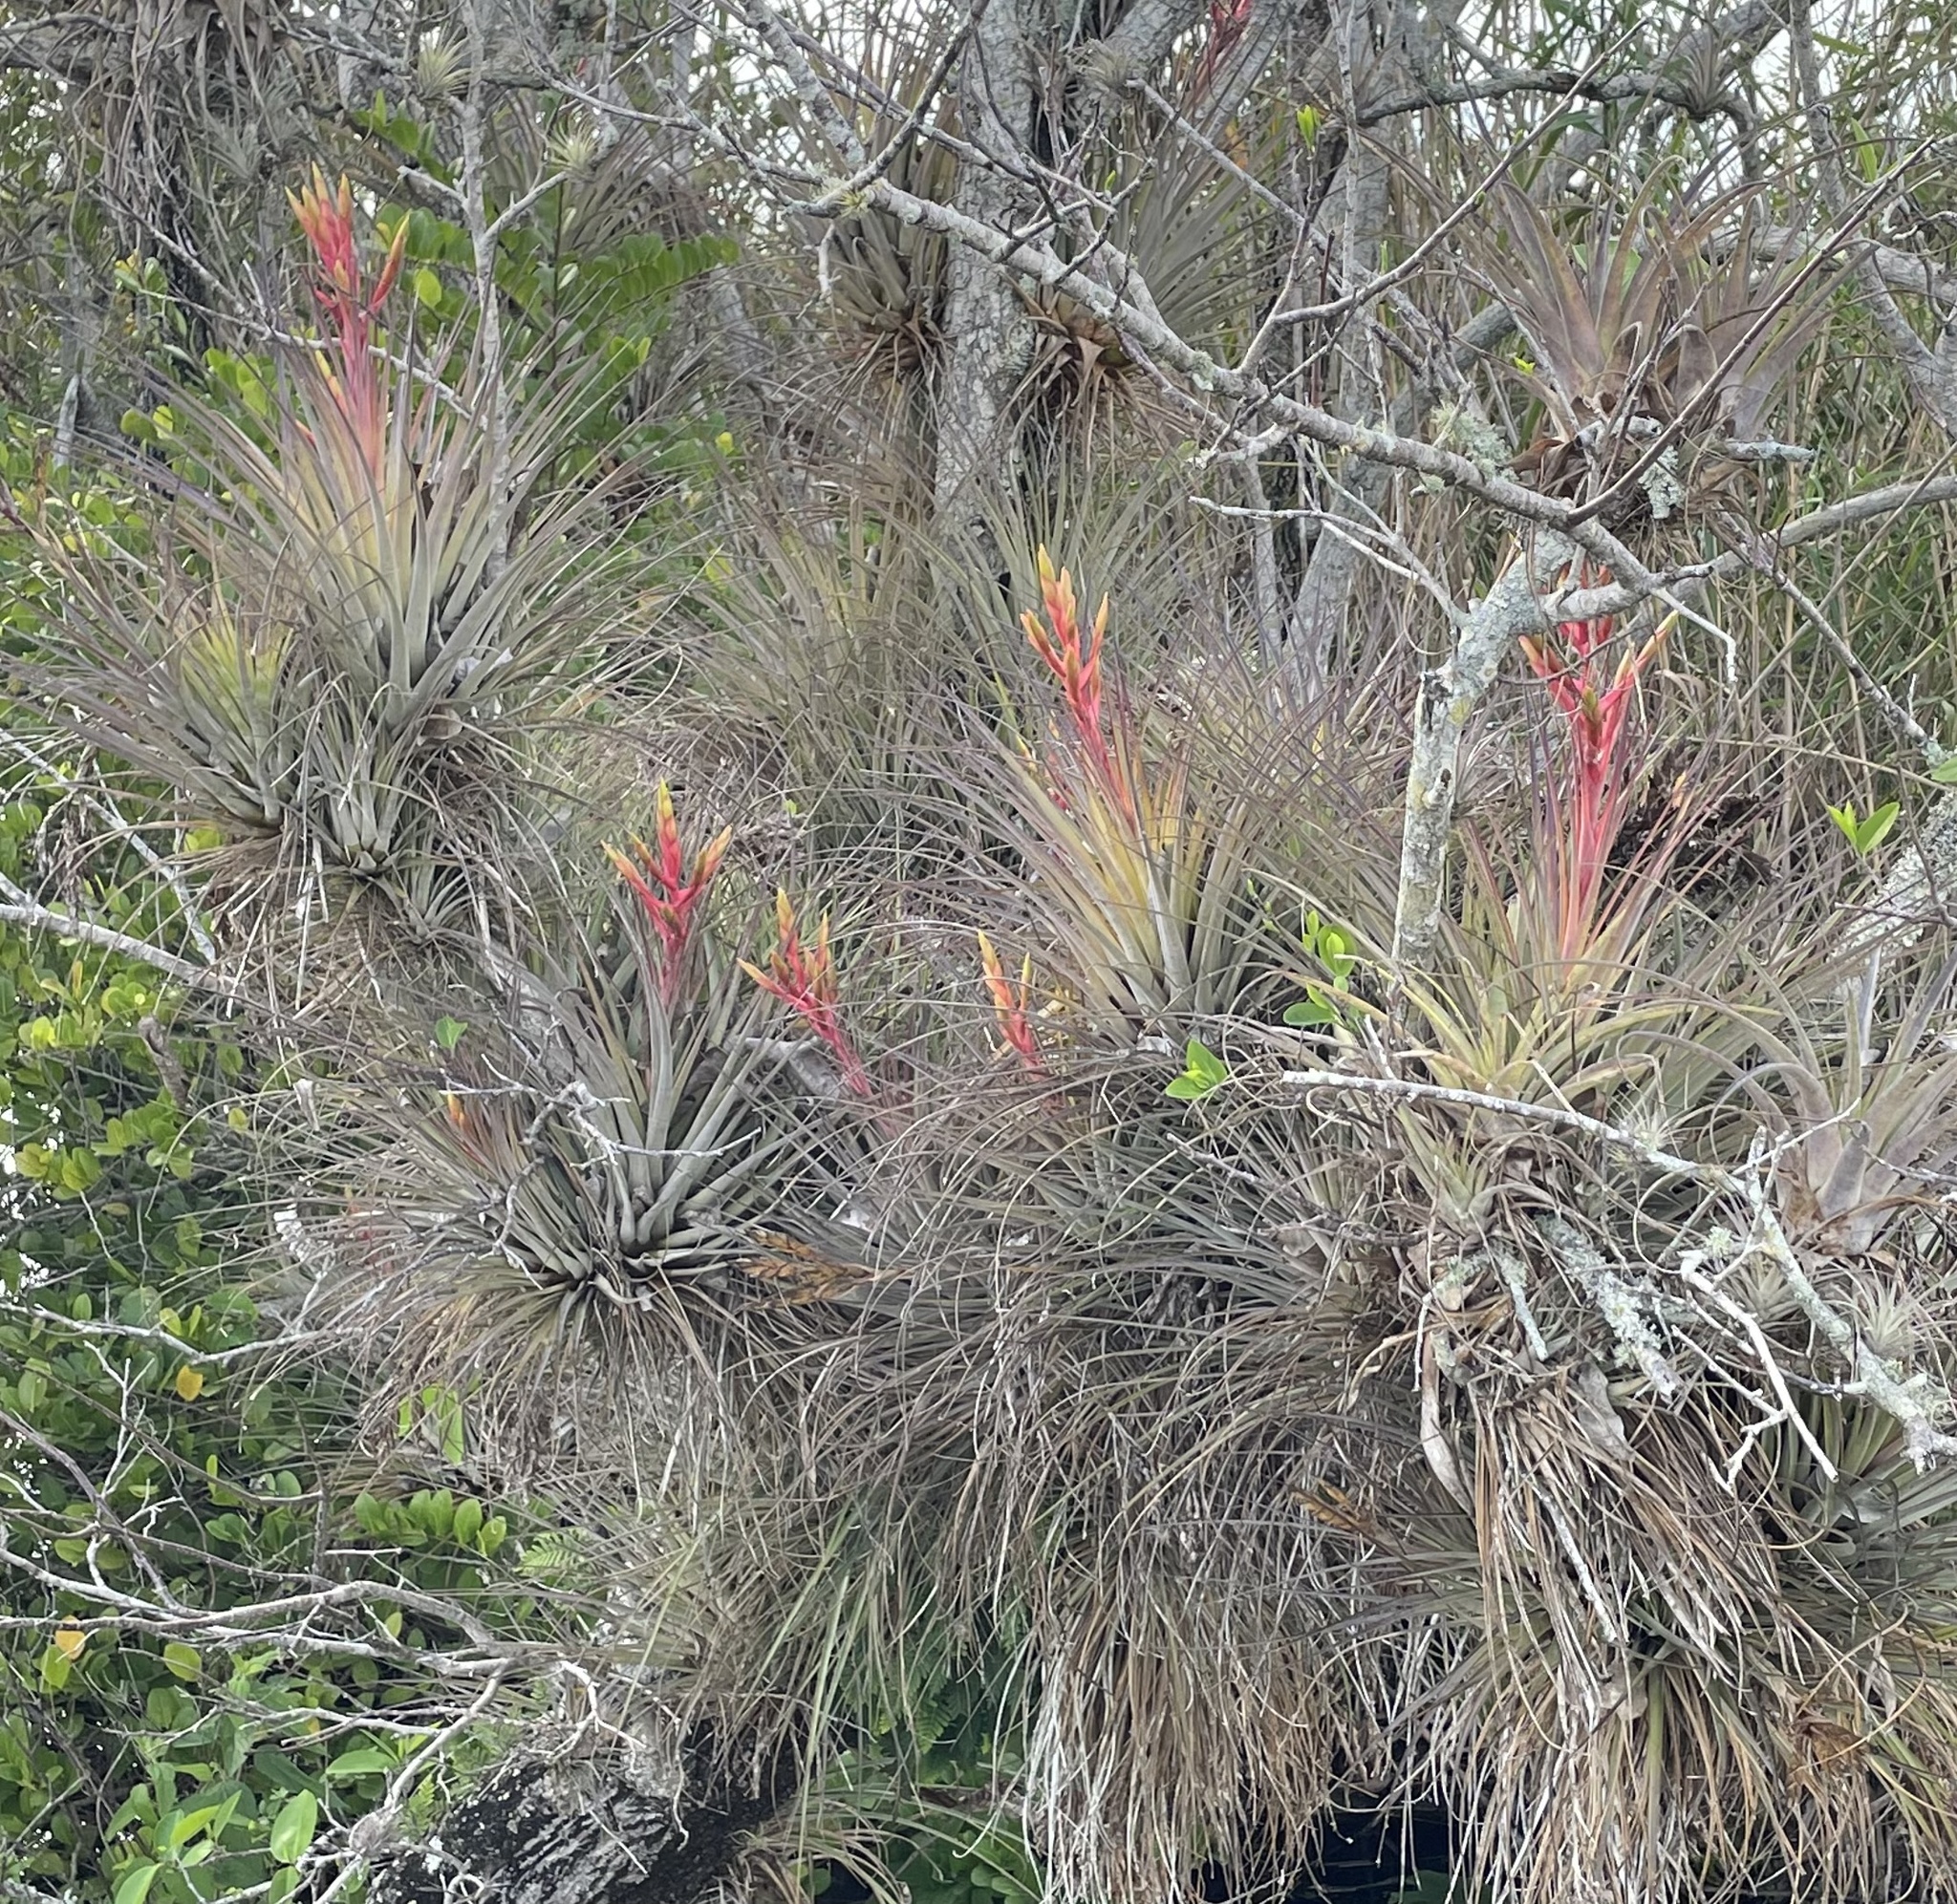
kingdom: Plantae
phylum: Tracheophyta
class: Liliopsida
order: Poales
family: Bromeliaceae
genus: Tillandsia
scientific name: Tillandsia fasciculata
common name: Giant airplant
